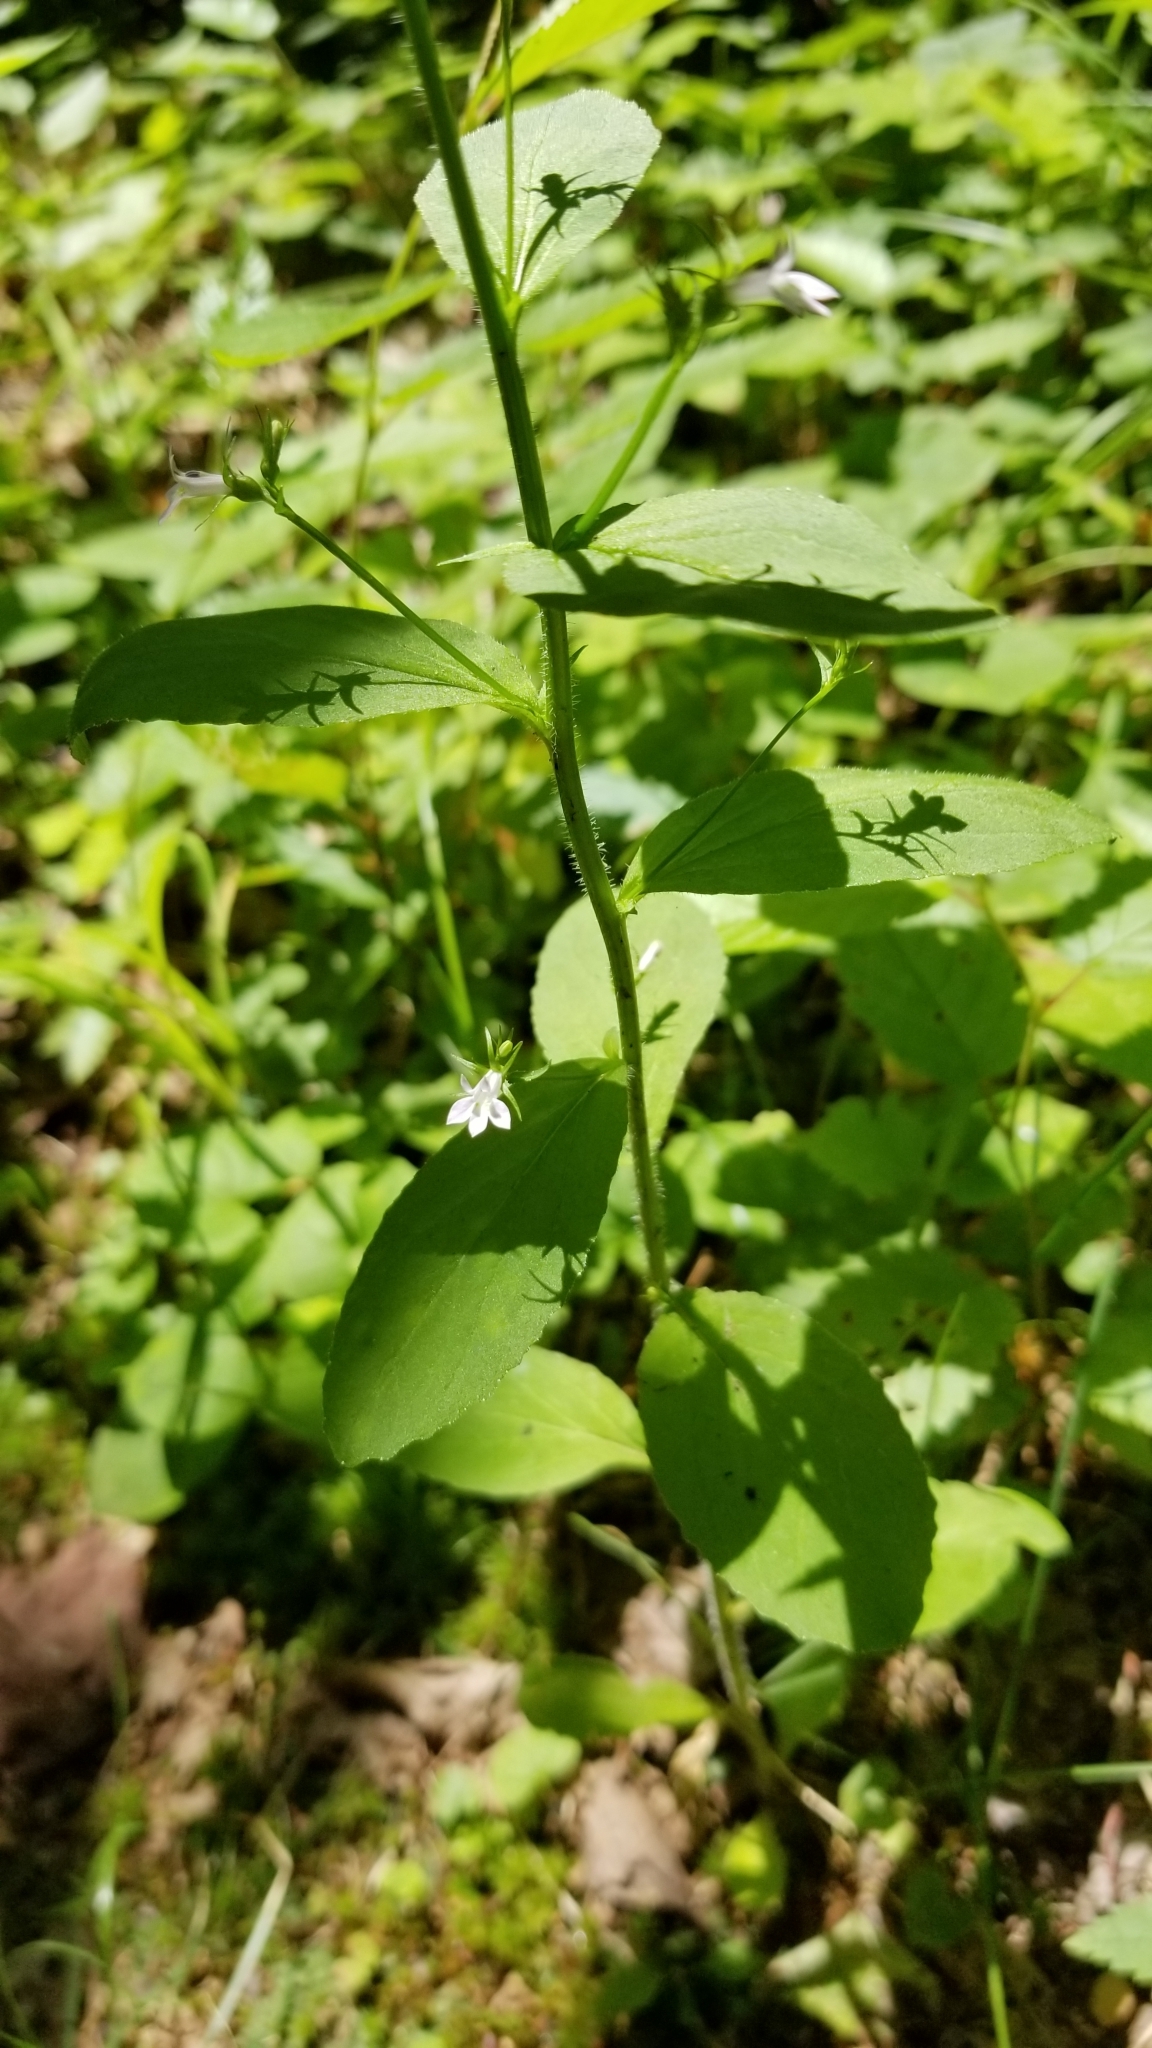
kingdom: Plantae
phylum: Tracheophyta
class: Magnoliopsida
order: Asterales
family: Campanulaceae
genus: Lobelia
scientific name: Lobelia inflata
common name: Indian tobacco
